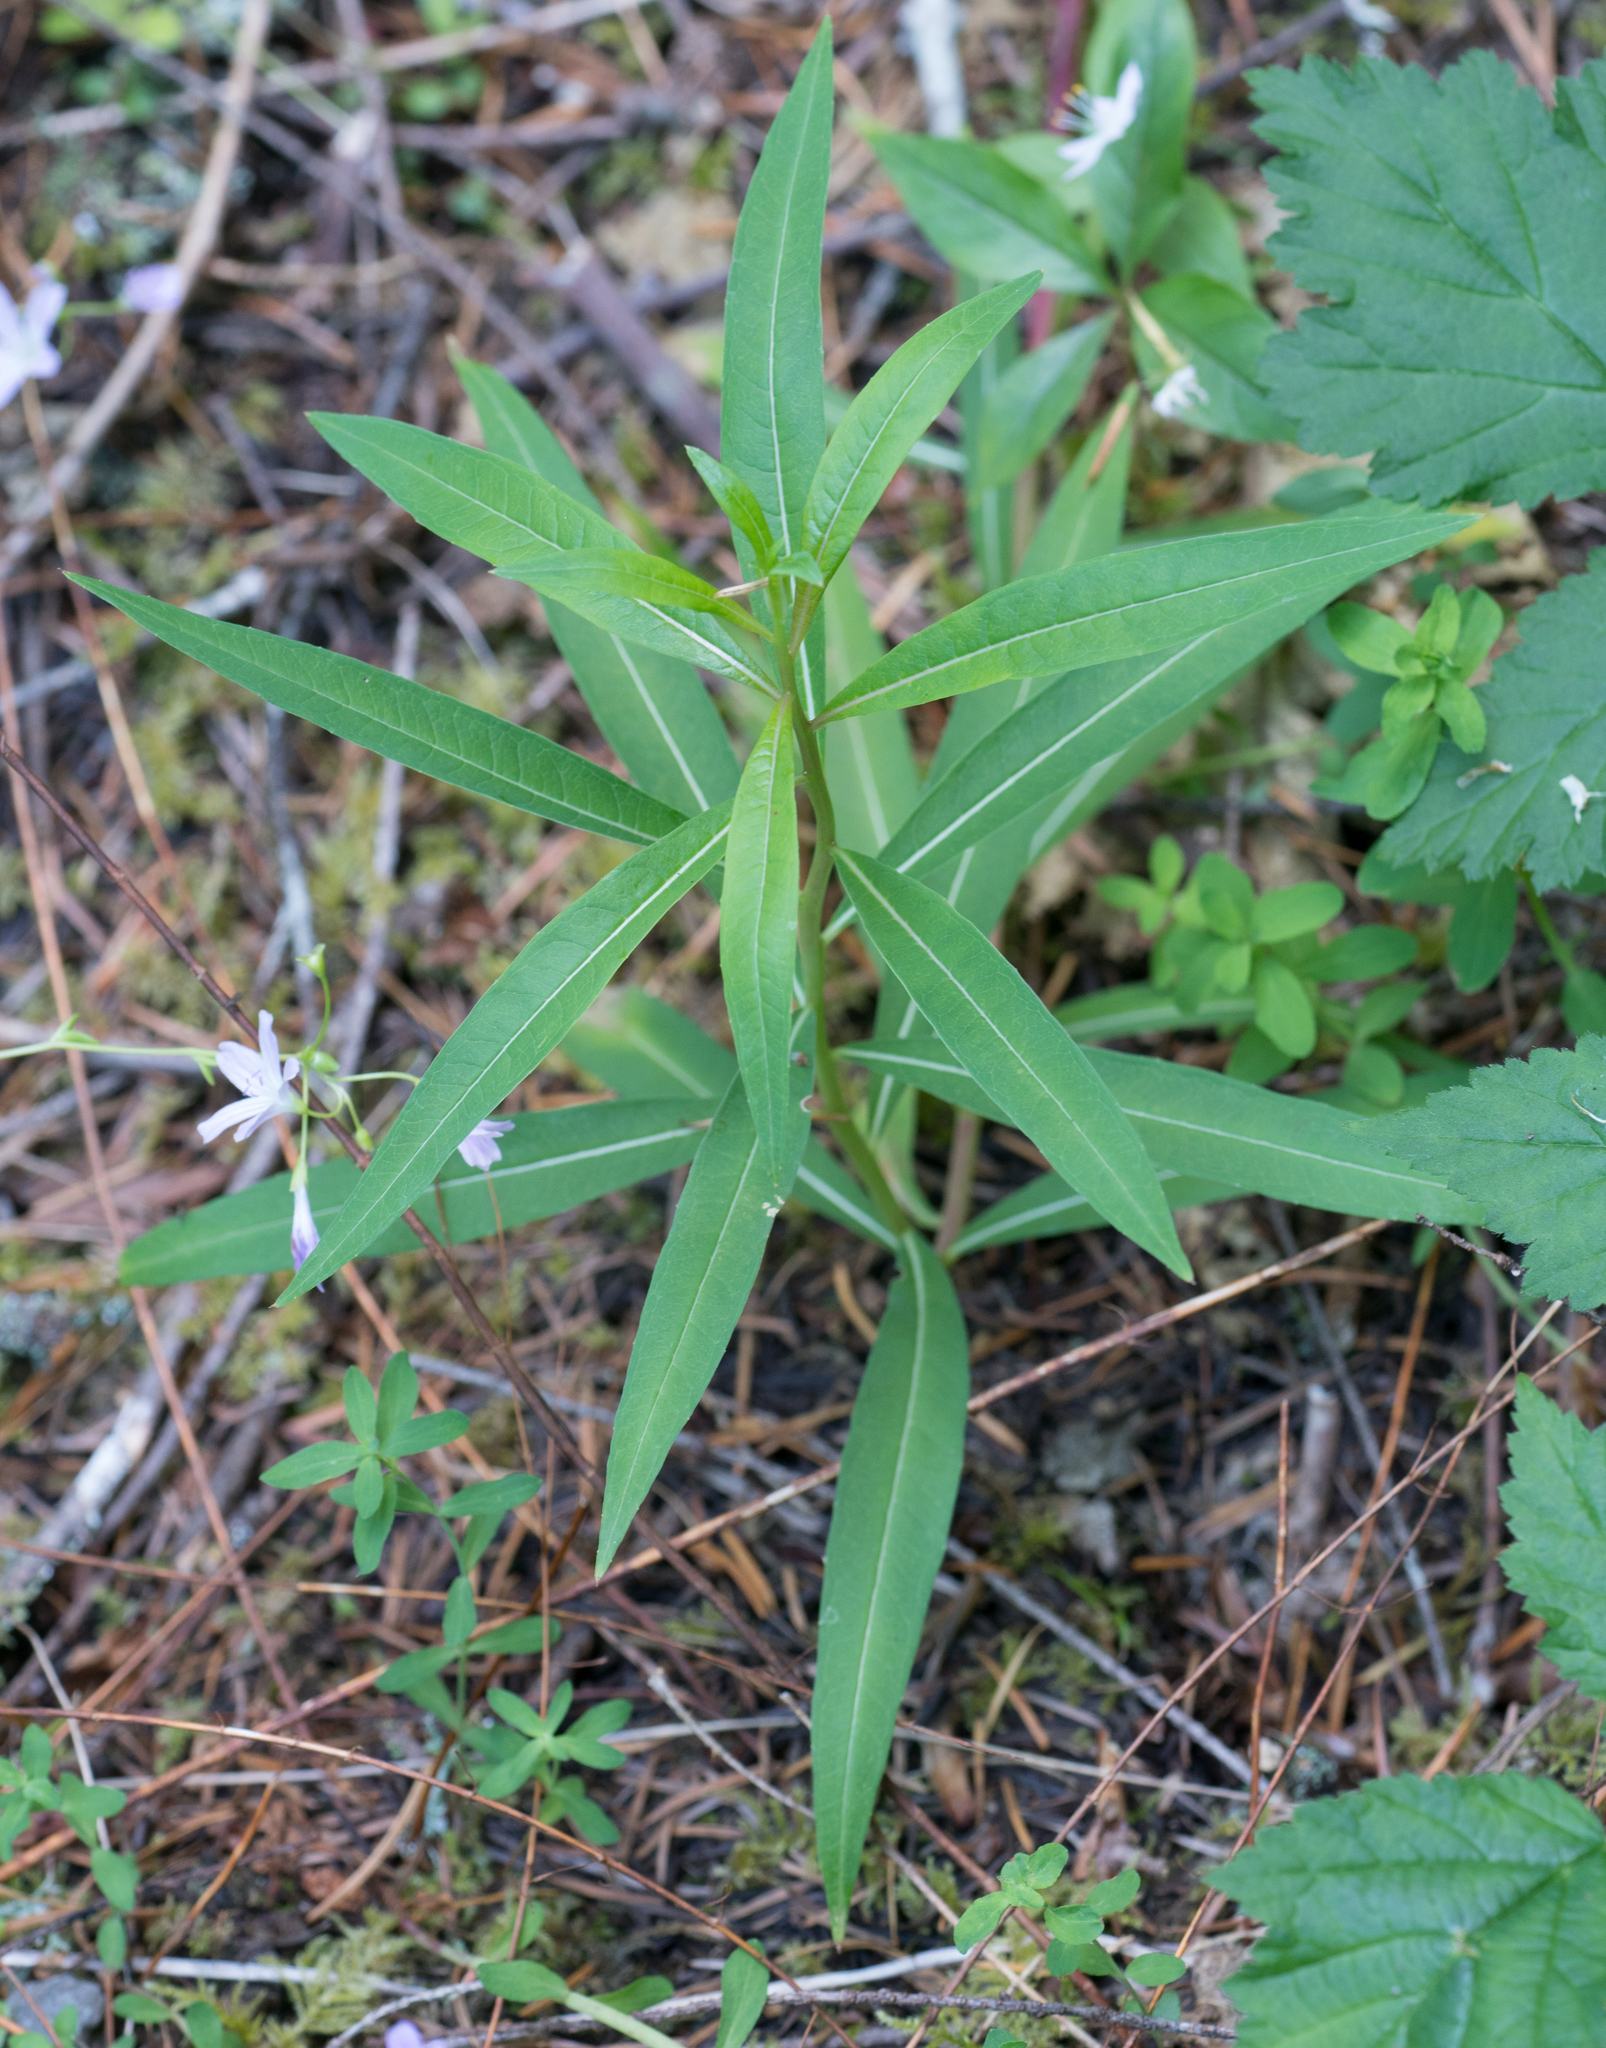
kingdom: Plantae
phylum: Tracheophyta
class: Magnoliopsida
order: Myrtales
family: Onagraceae
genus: Chamaenerion
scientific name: Chamaenerion angustifolium
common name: Fireweed
